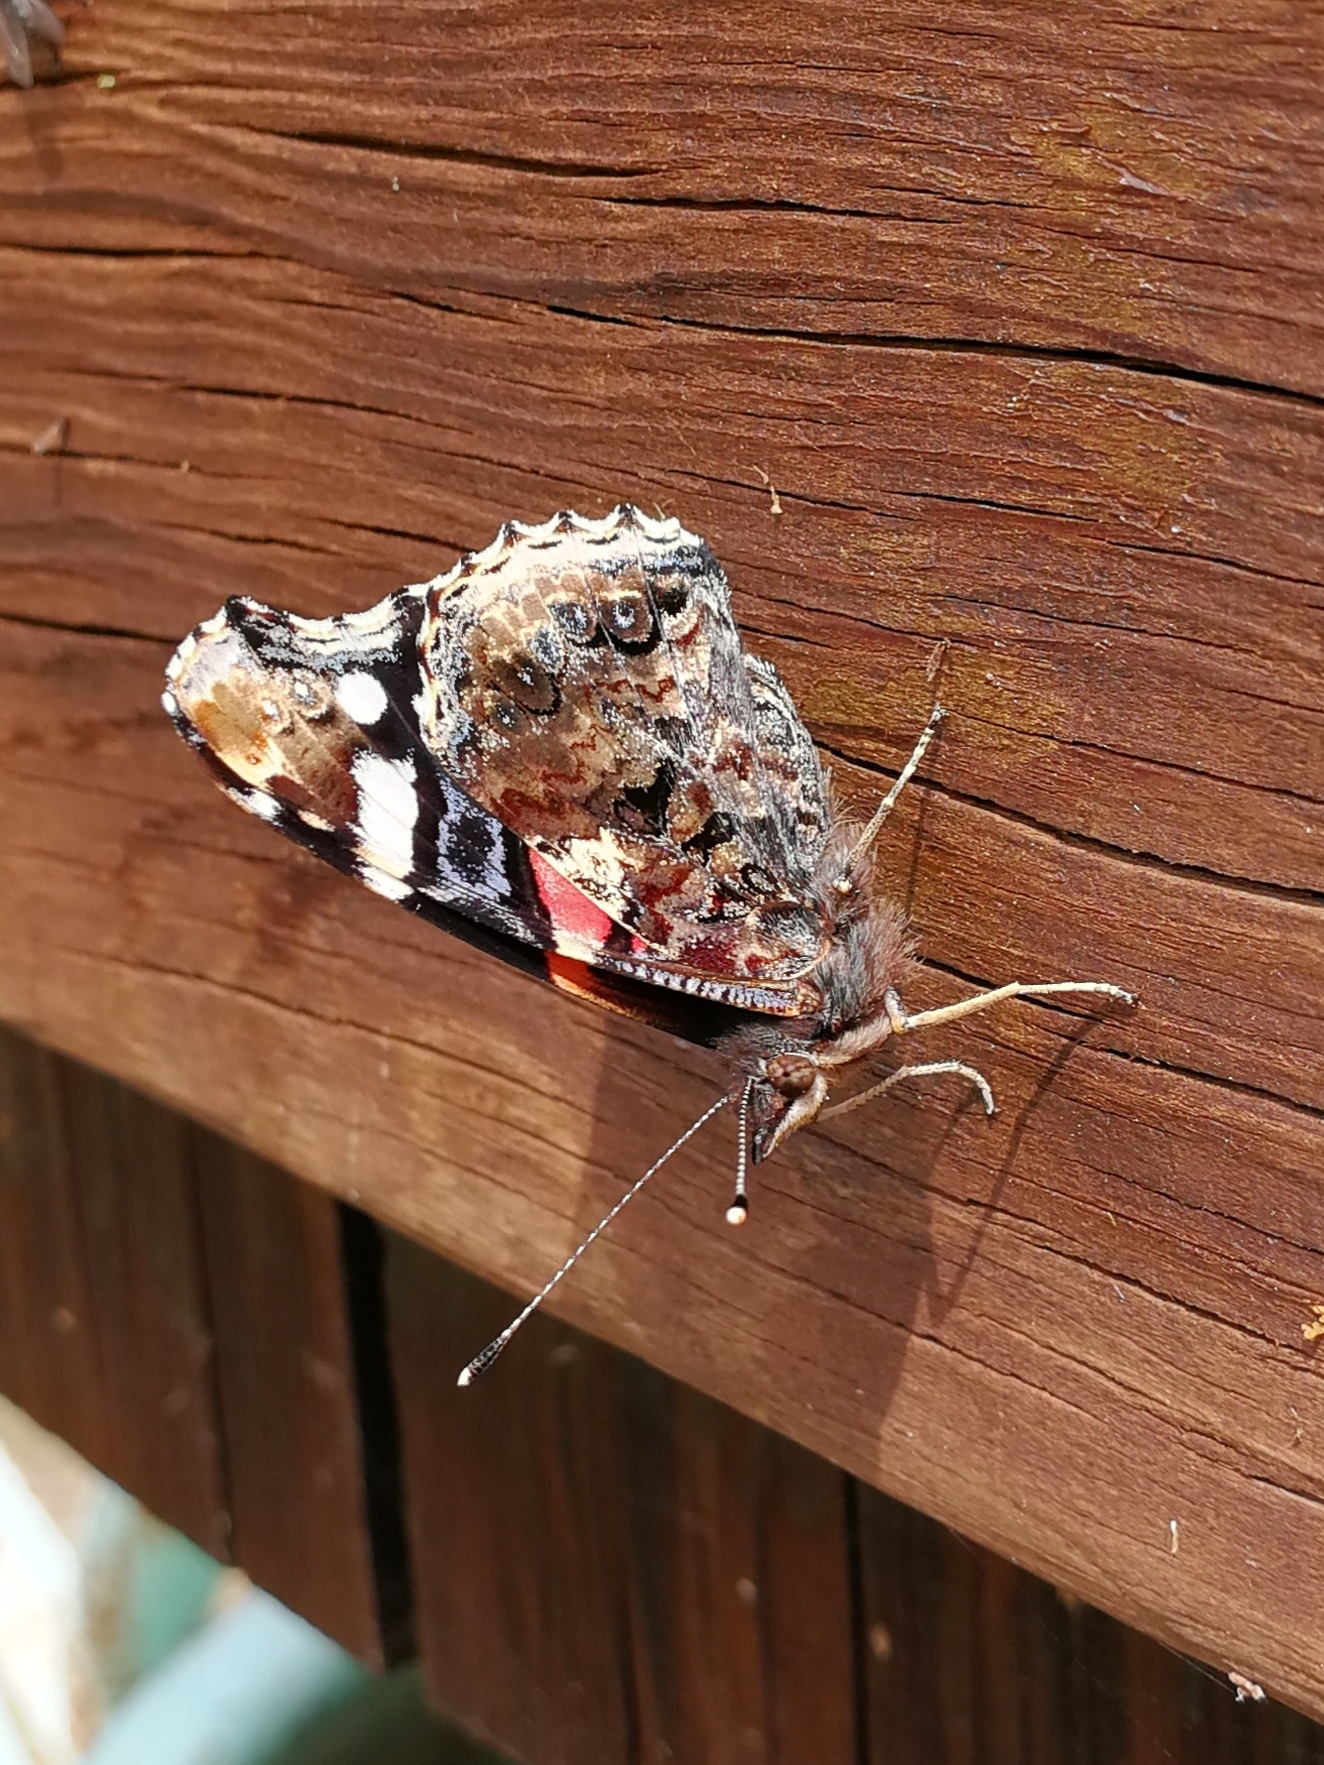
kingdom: Animalia
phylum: Arthropoda
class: Insecta
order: Lepidoptera
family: Nymphalidae
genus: Vanessa
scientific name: Vanessa atalanta
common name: Red admiral
